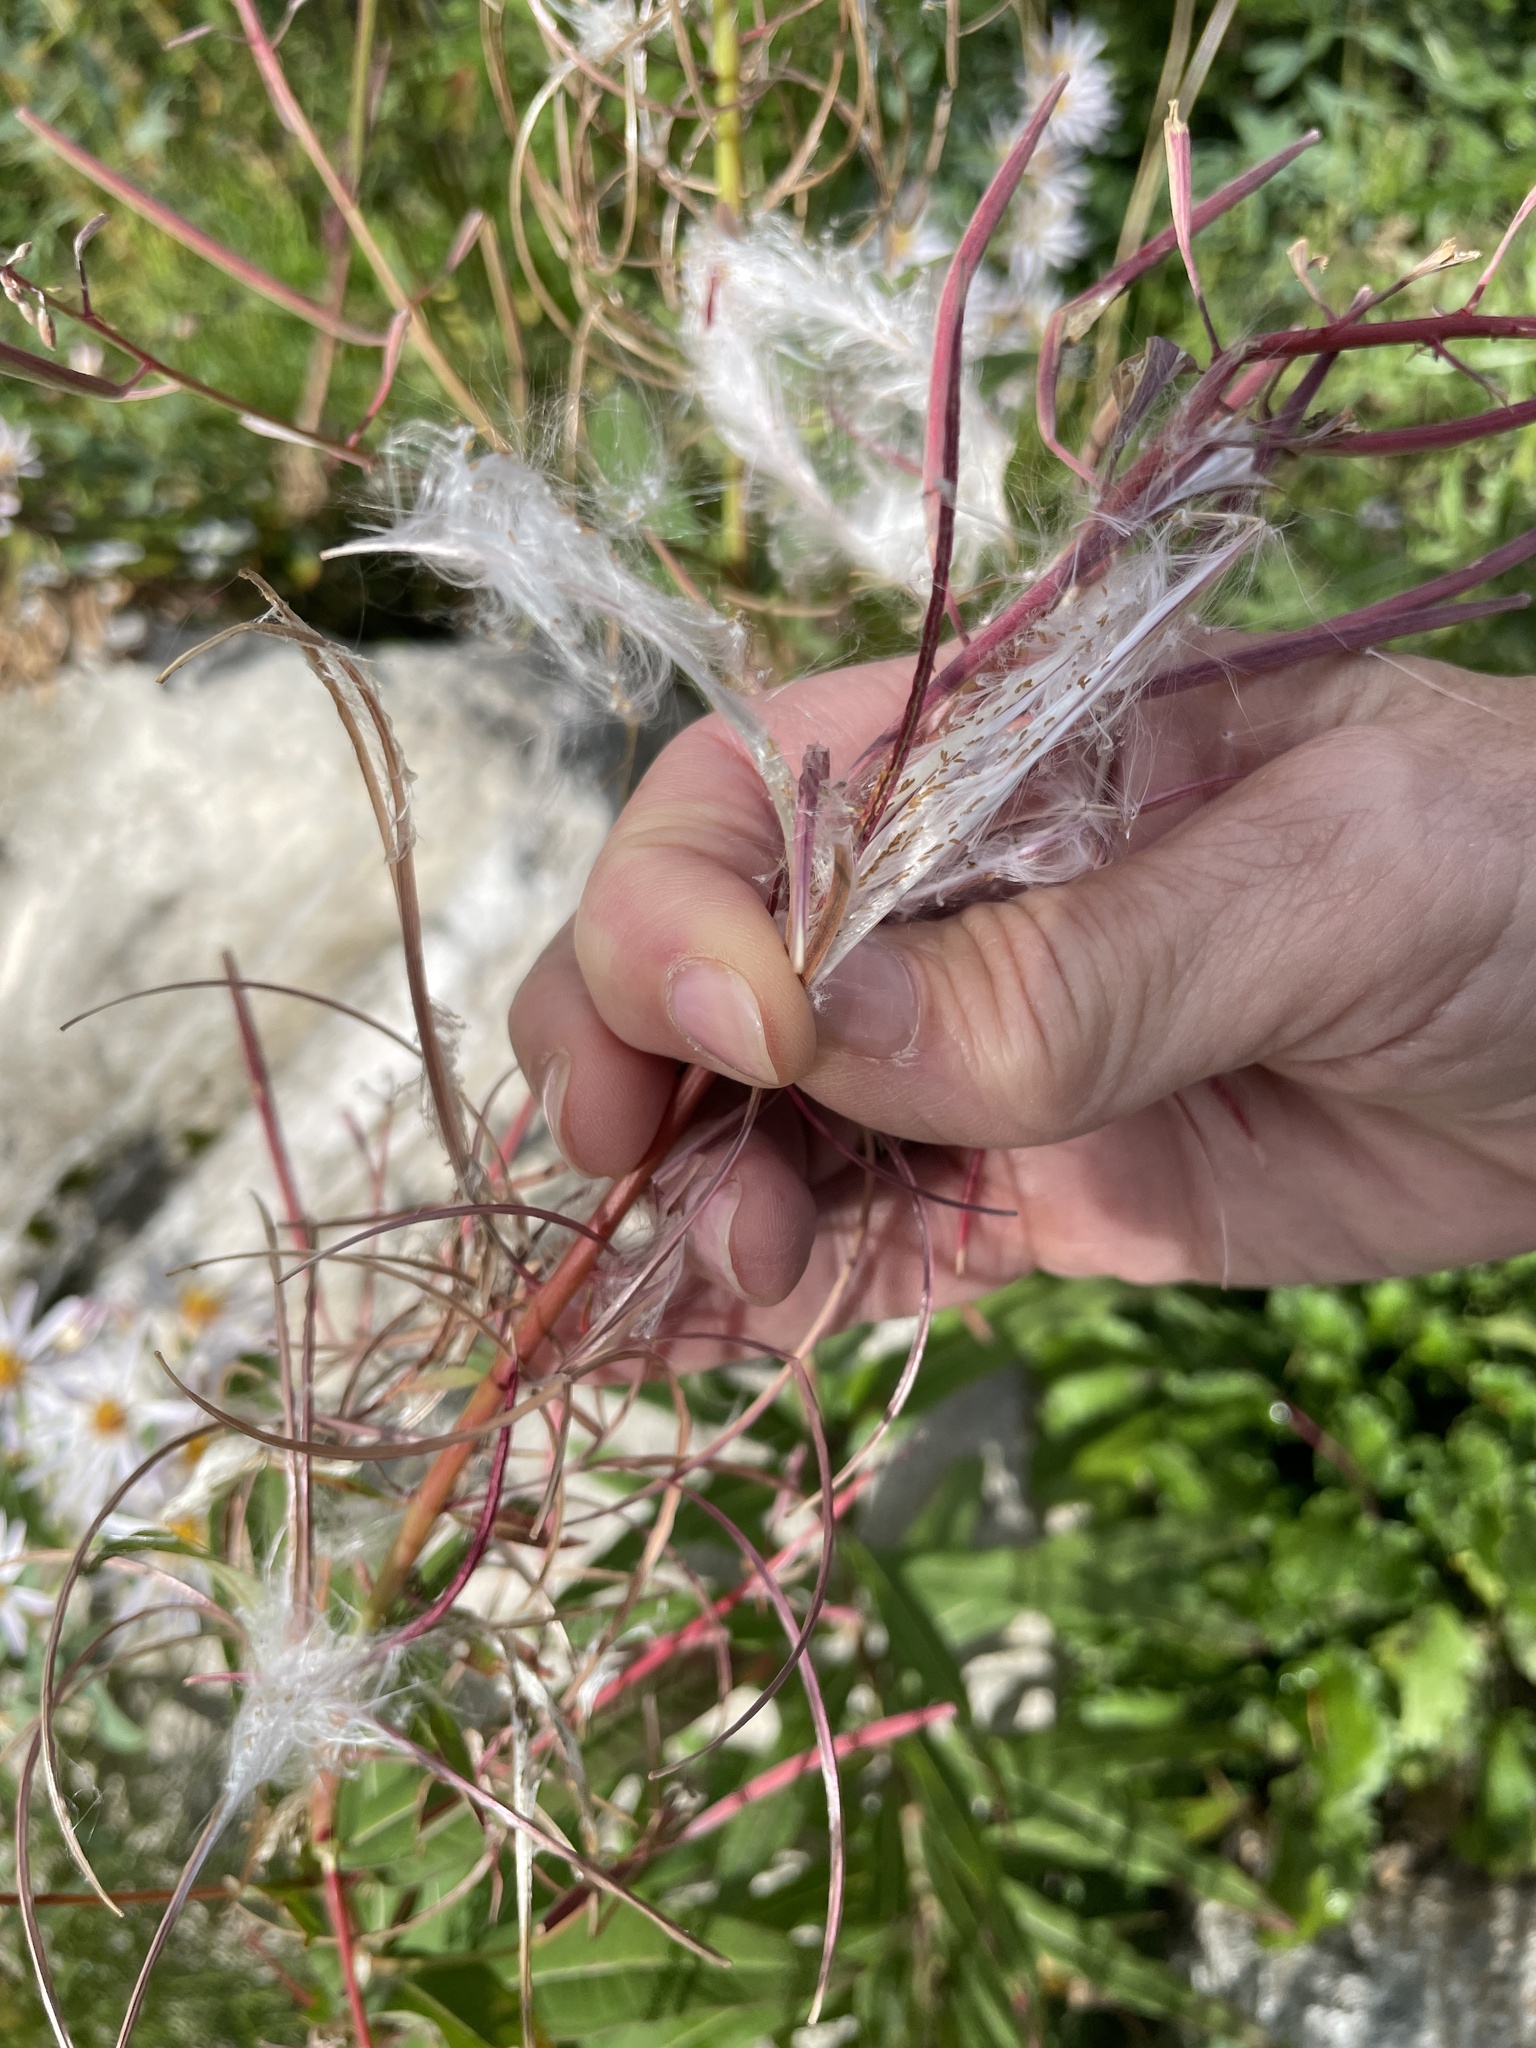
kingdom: Plantae
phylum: Tracheophyta
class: Magnoliopsida
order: Myrtales
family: Onagraceae
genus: Chamaenerion
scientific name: Chamaenerion angustifolium
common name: Fireweed
